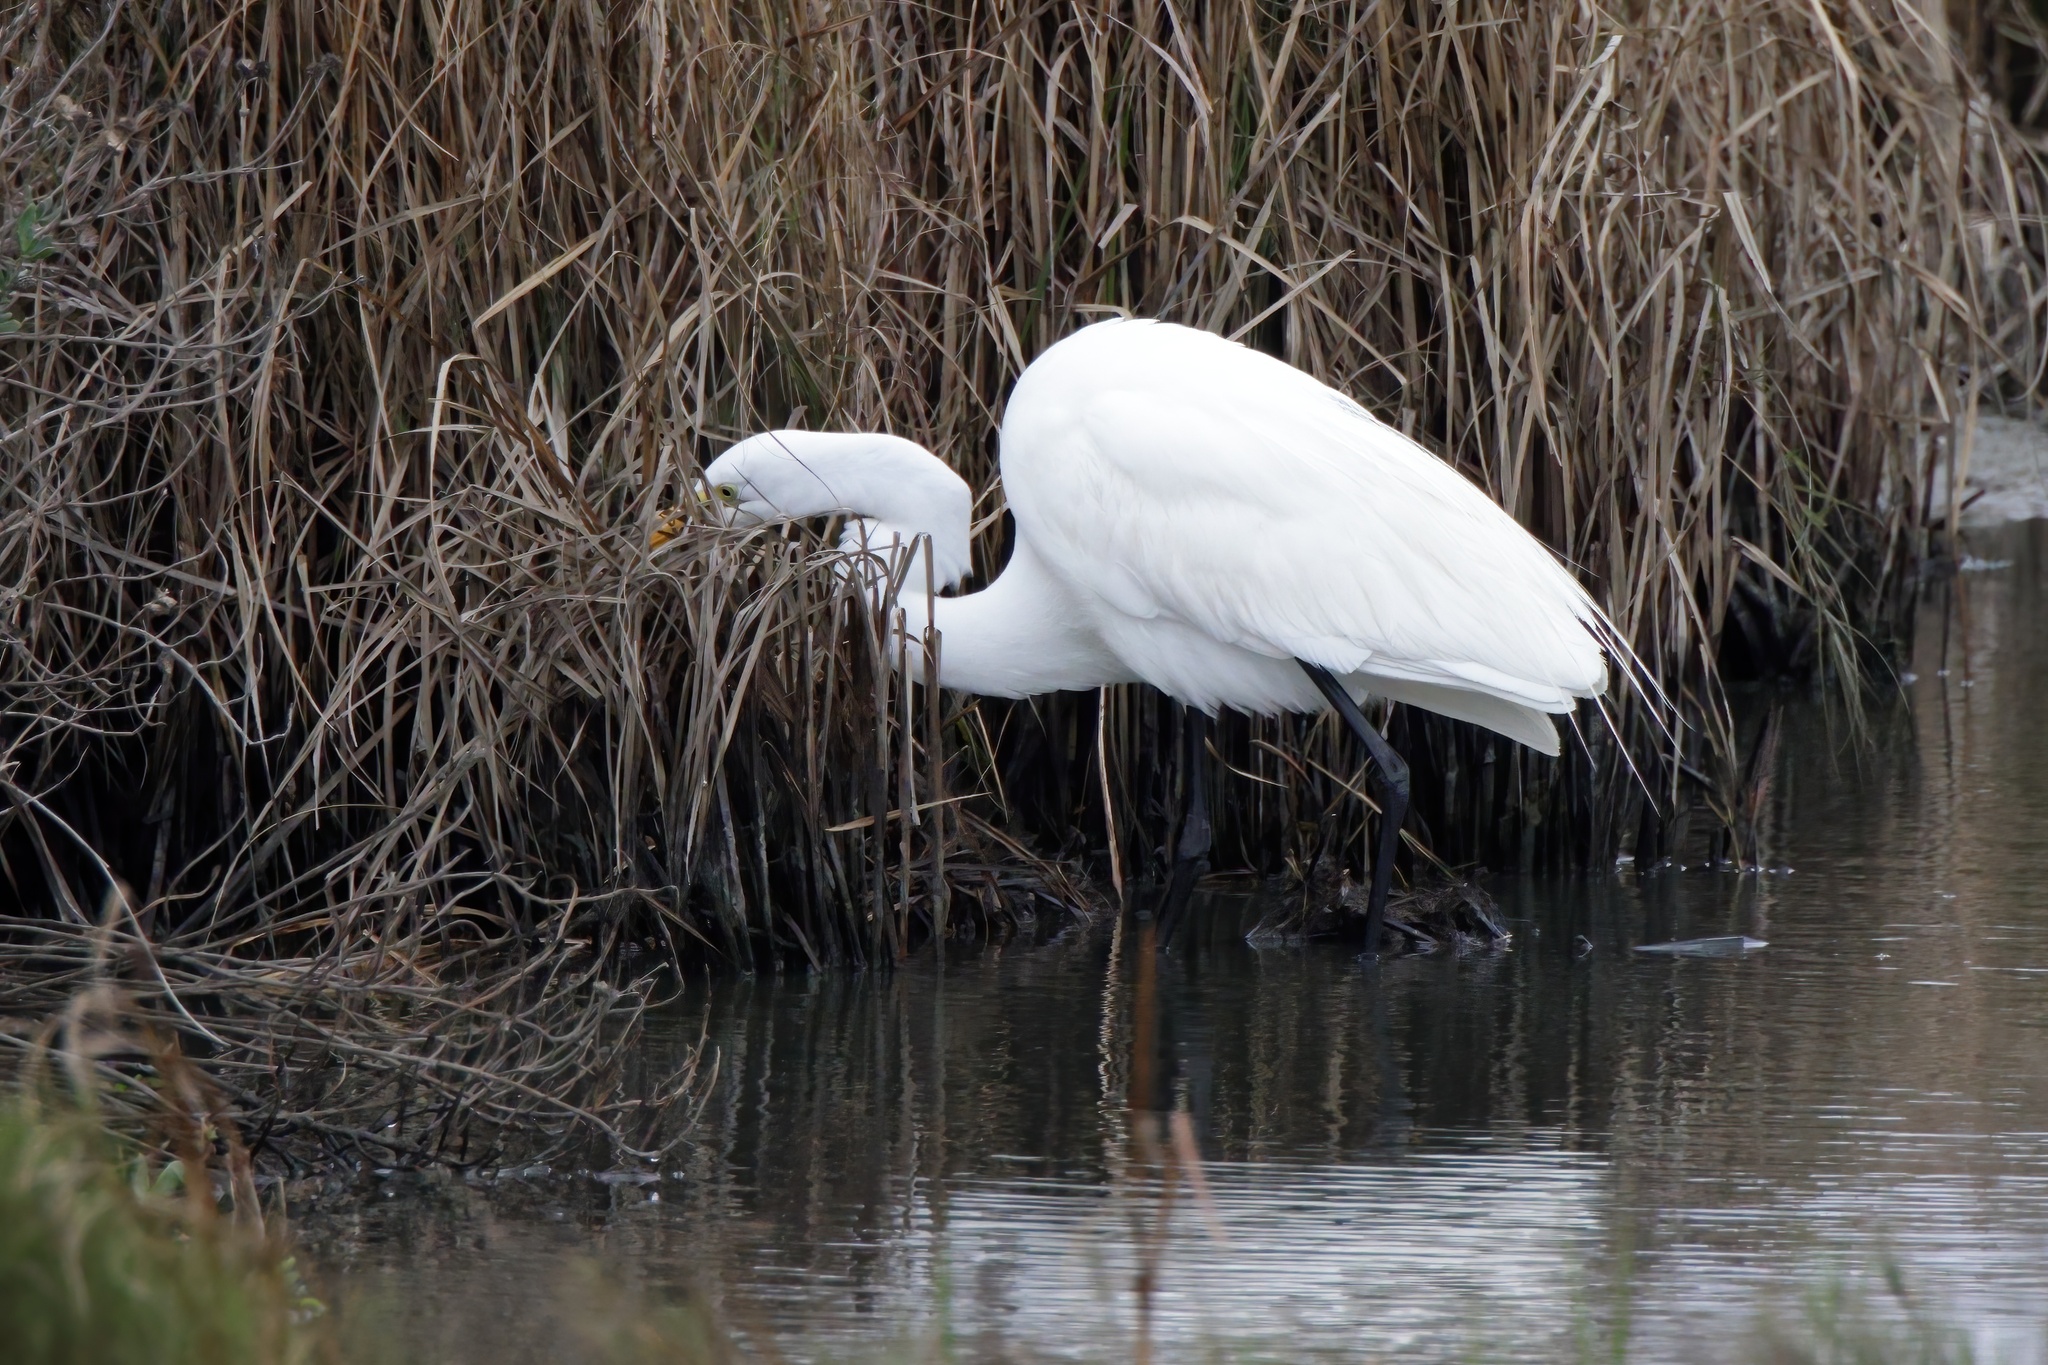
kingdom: Animalia
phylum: Chordata
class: Aves
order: Pelecaniformes
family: Ardeidae
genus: Ardea
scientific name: Ardea alba
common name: Great egret
